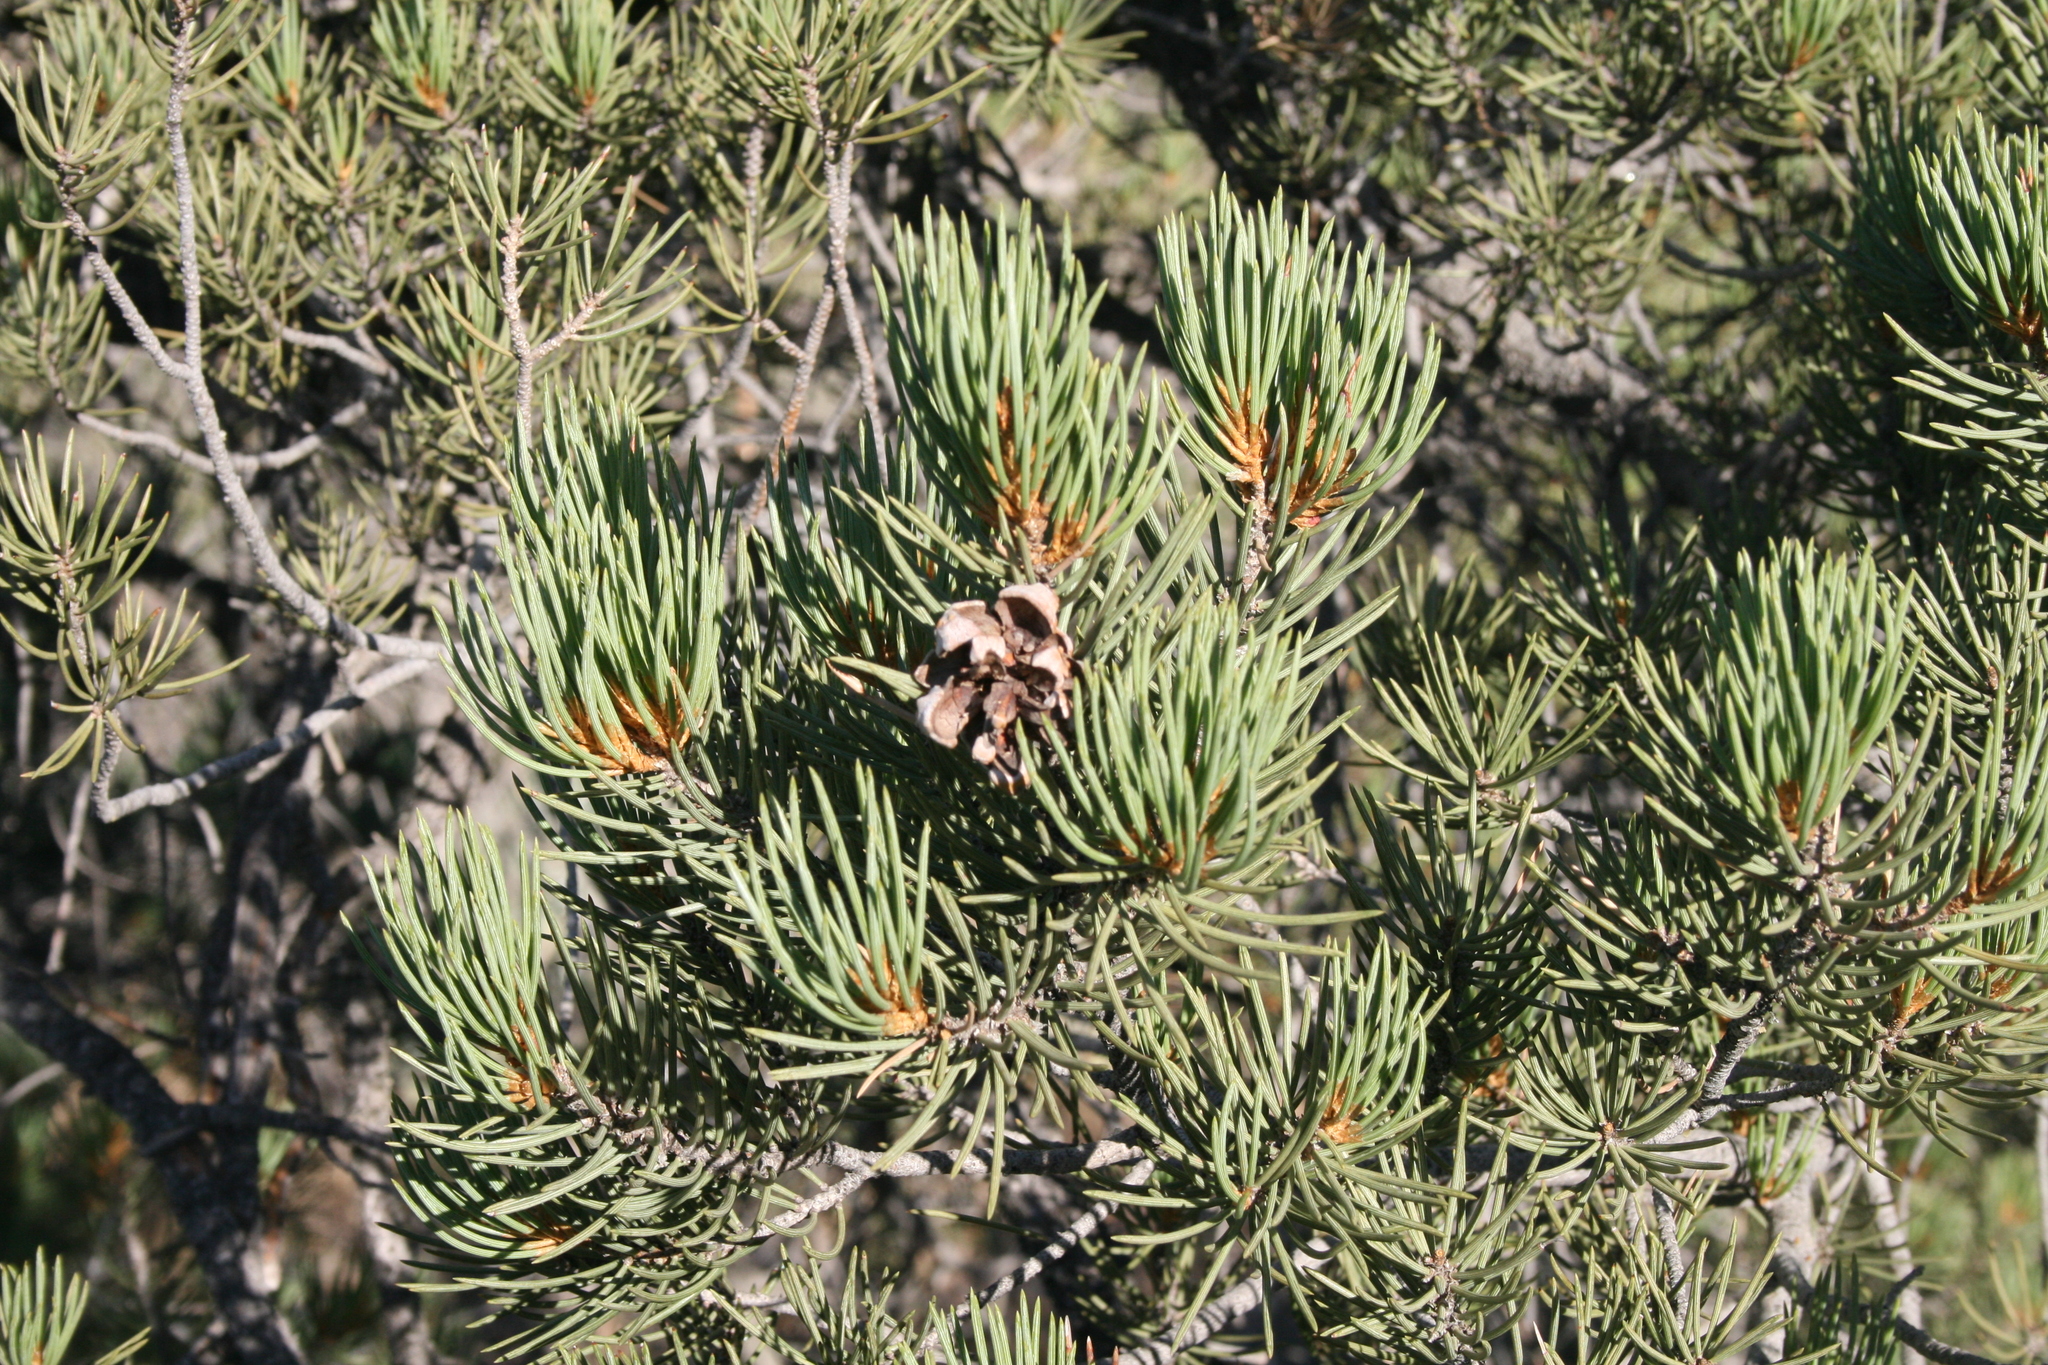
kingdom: Plantae
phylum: Tracheophyta
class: Pinopsida
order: Pinales
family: Pinaceae
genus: Pinus
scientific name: Pinus monophylla
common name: One-leaved nut pine
